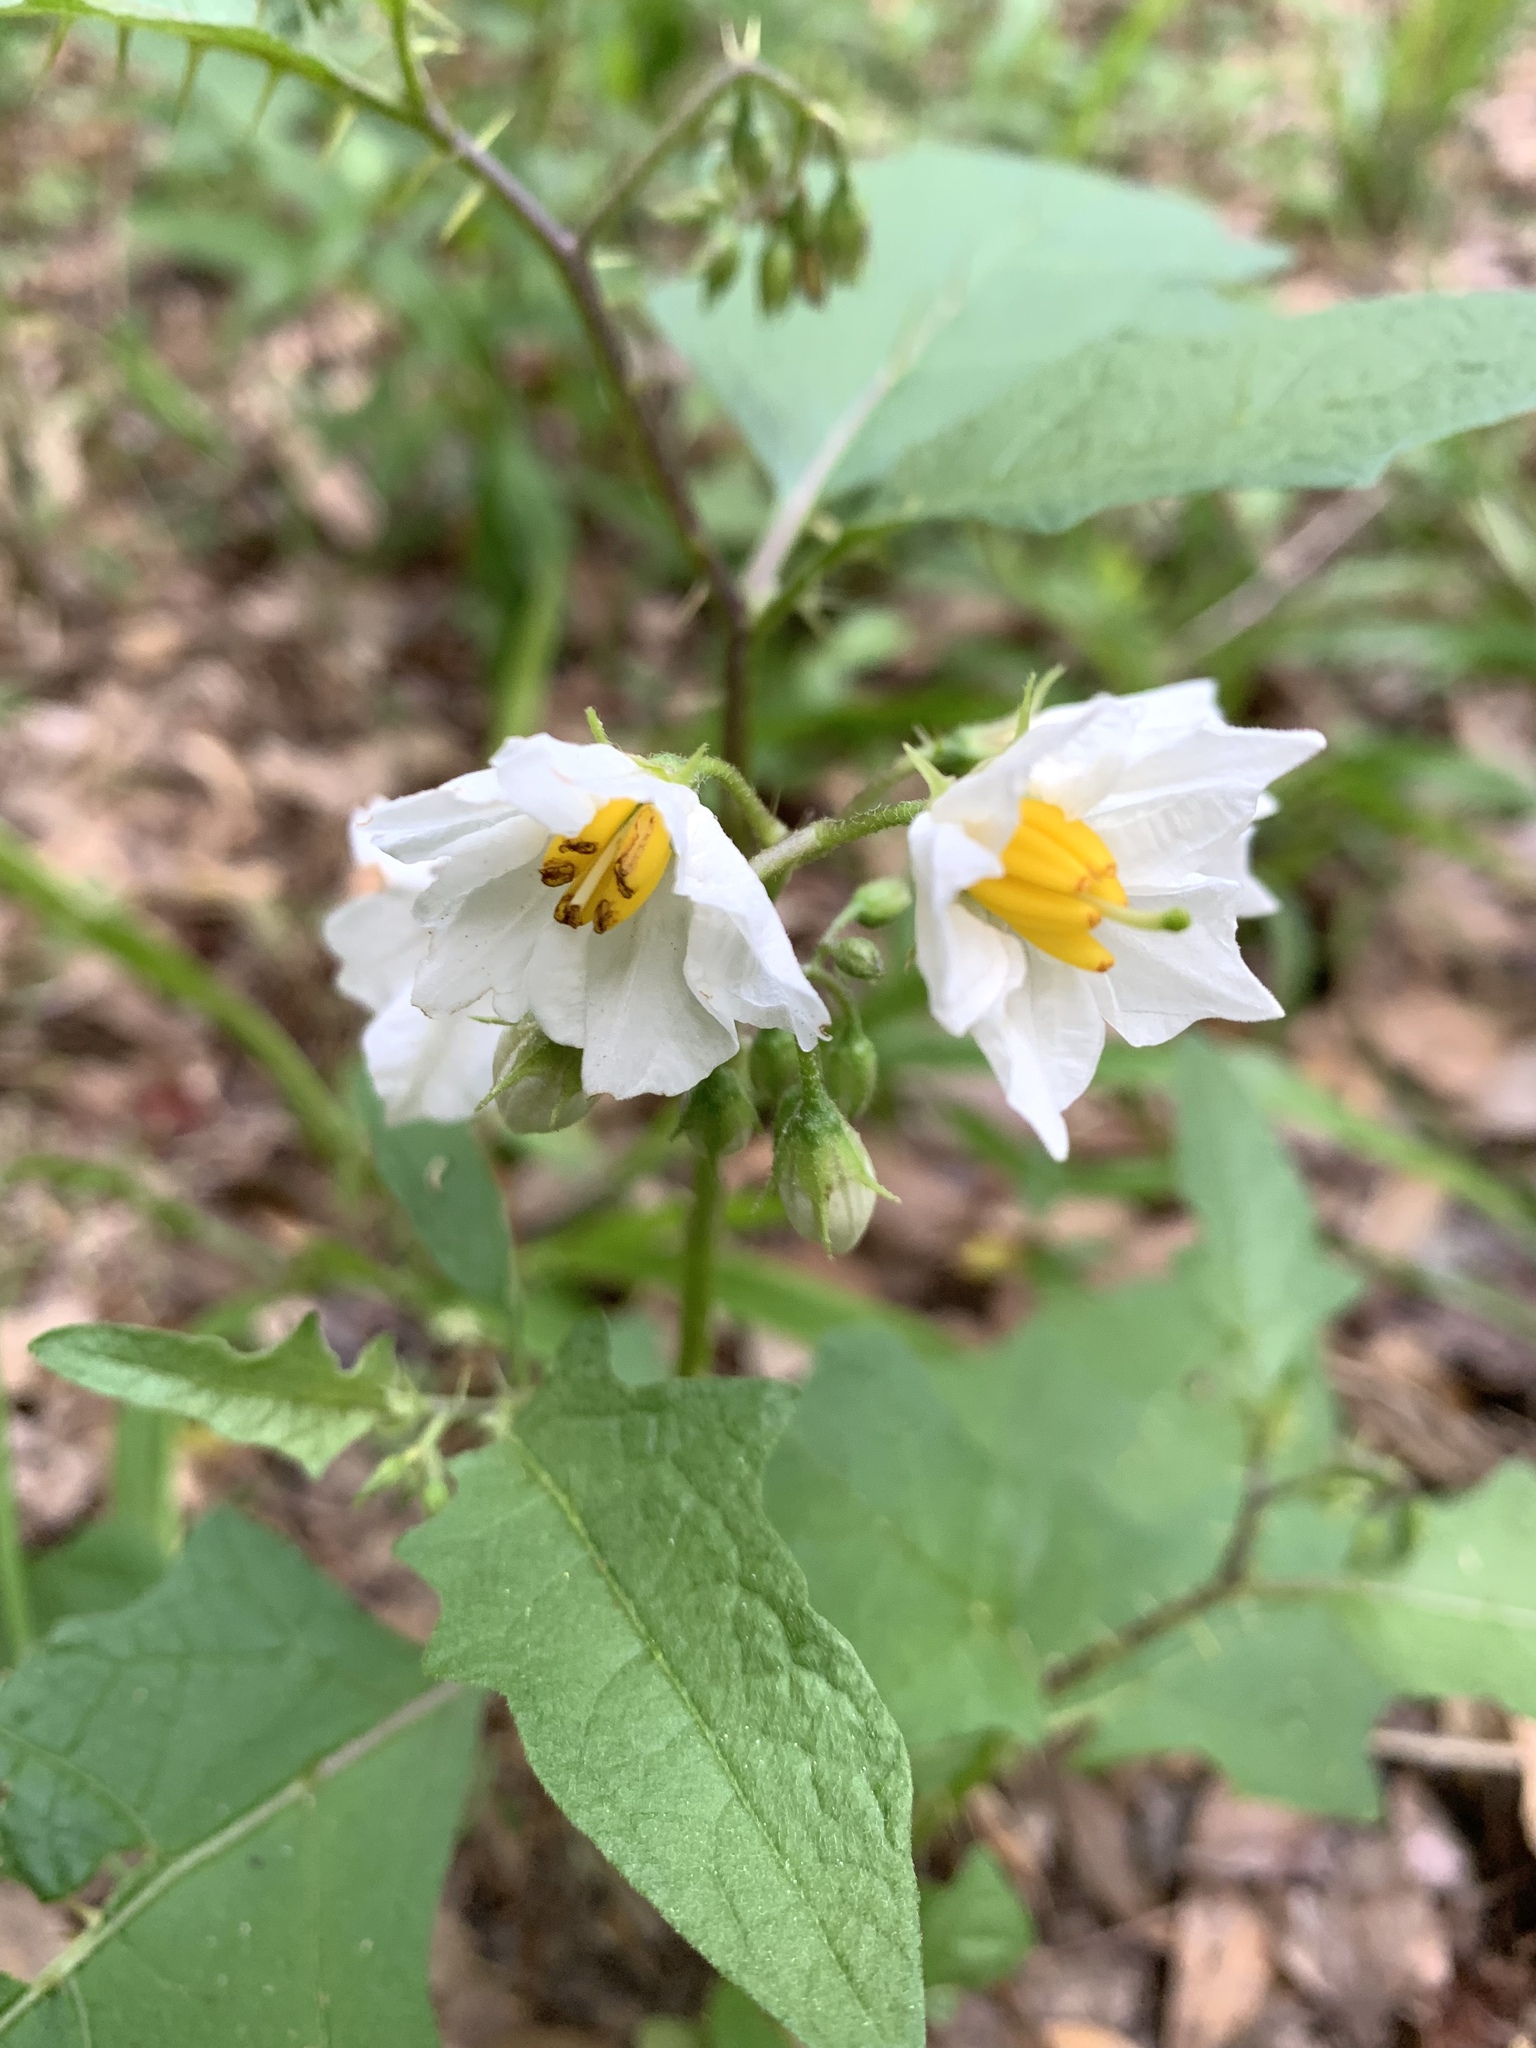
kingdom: Plantae
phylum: Tracheophyta
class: Magnoliopsida
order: Solanales
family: Solanaceae
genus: Solanum
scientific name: Solanum carolinense
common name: Horse-nettle
